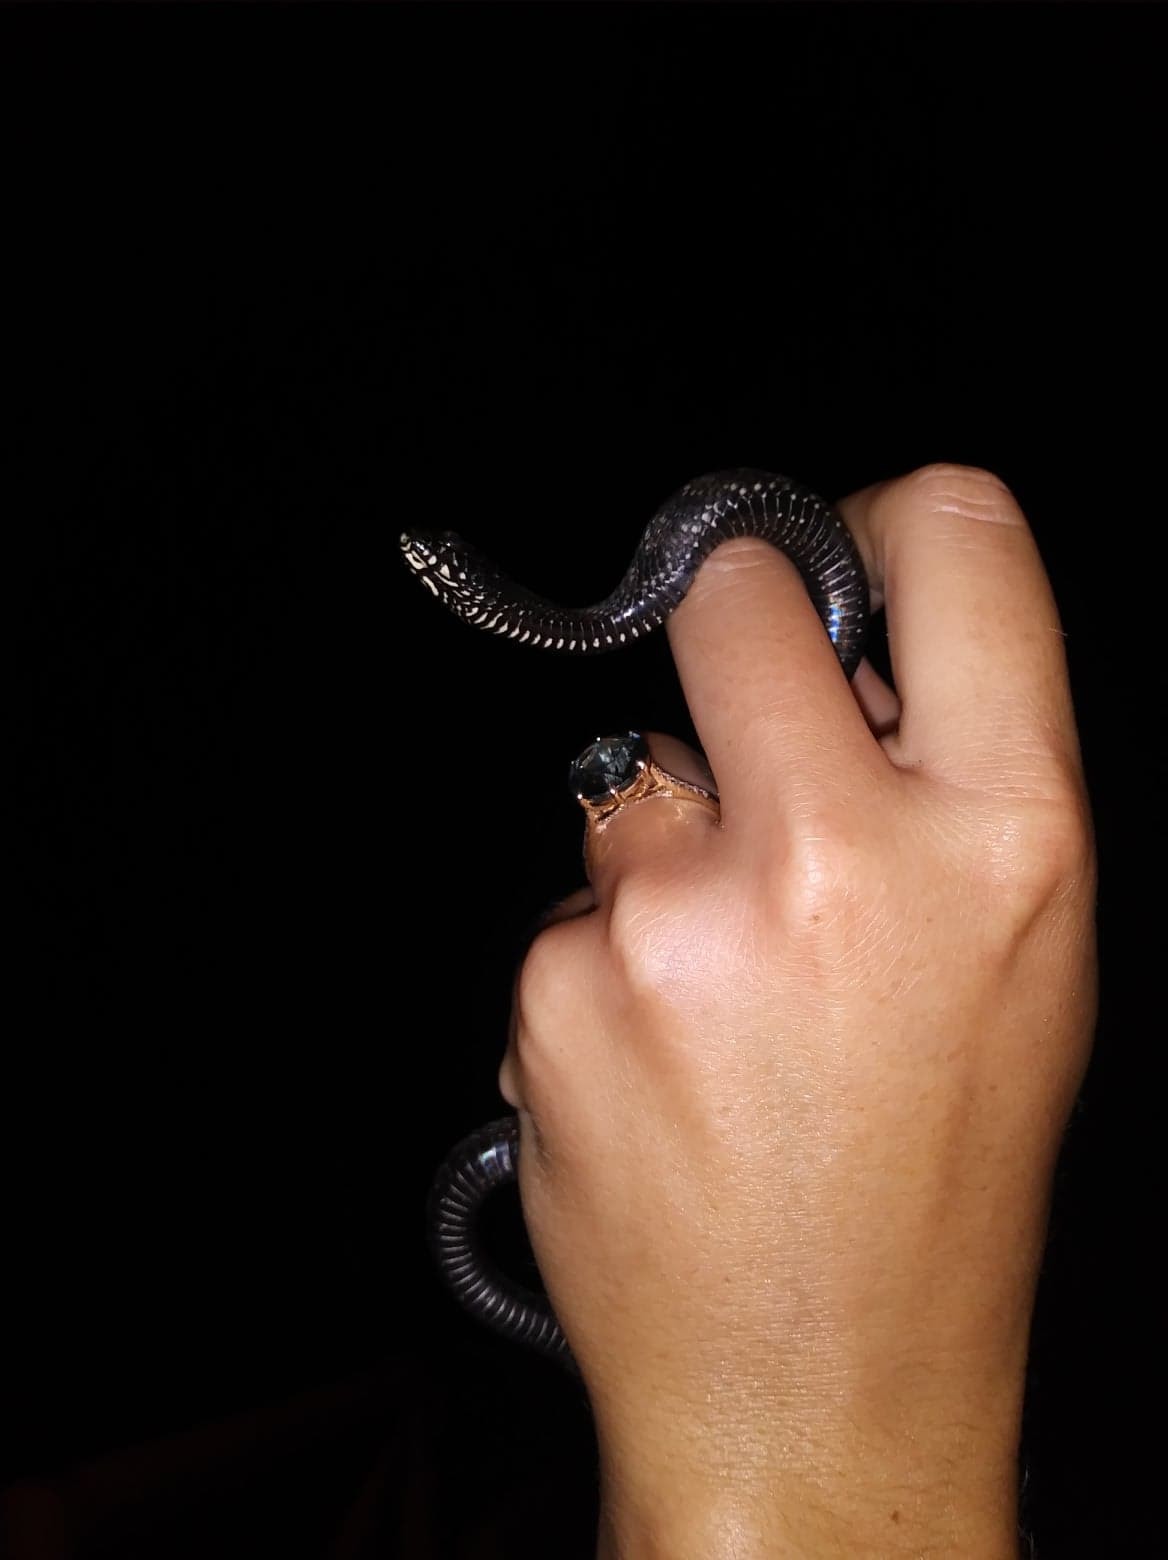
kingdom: Animalia
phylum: Chordata
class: Squamata
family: Colubridae
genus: Nerodia
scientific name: Nerodia clarkii
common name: Atlantic saltmarsh snake
